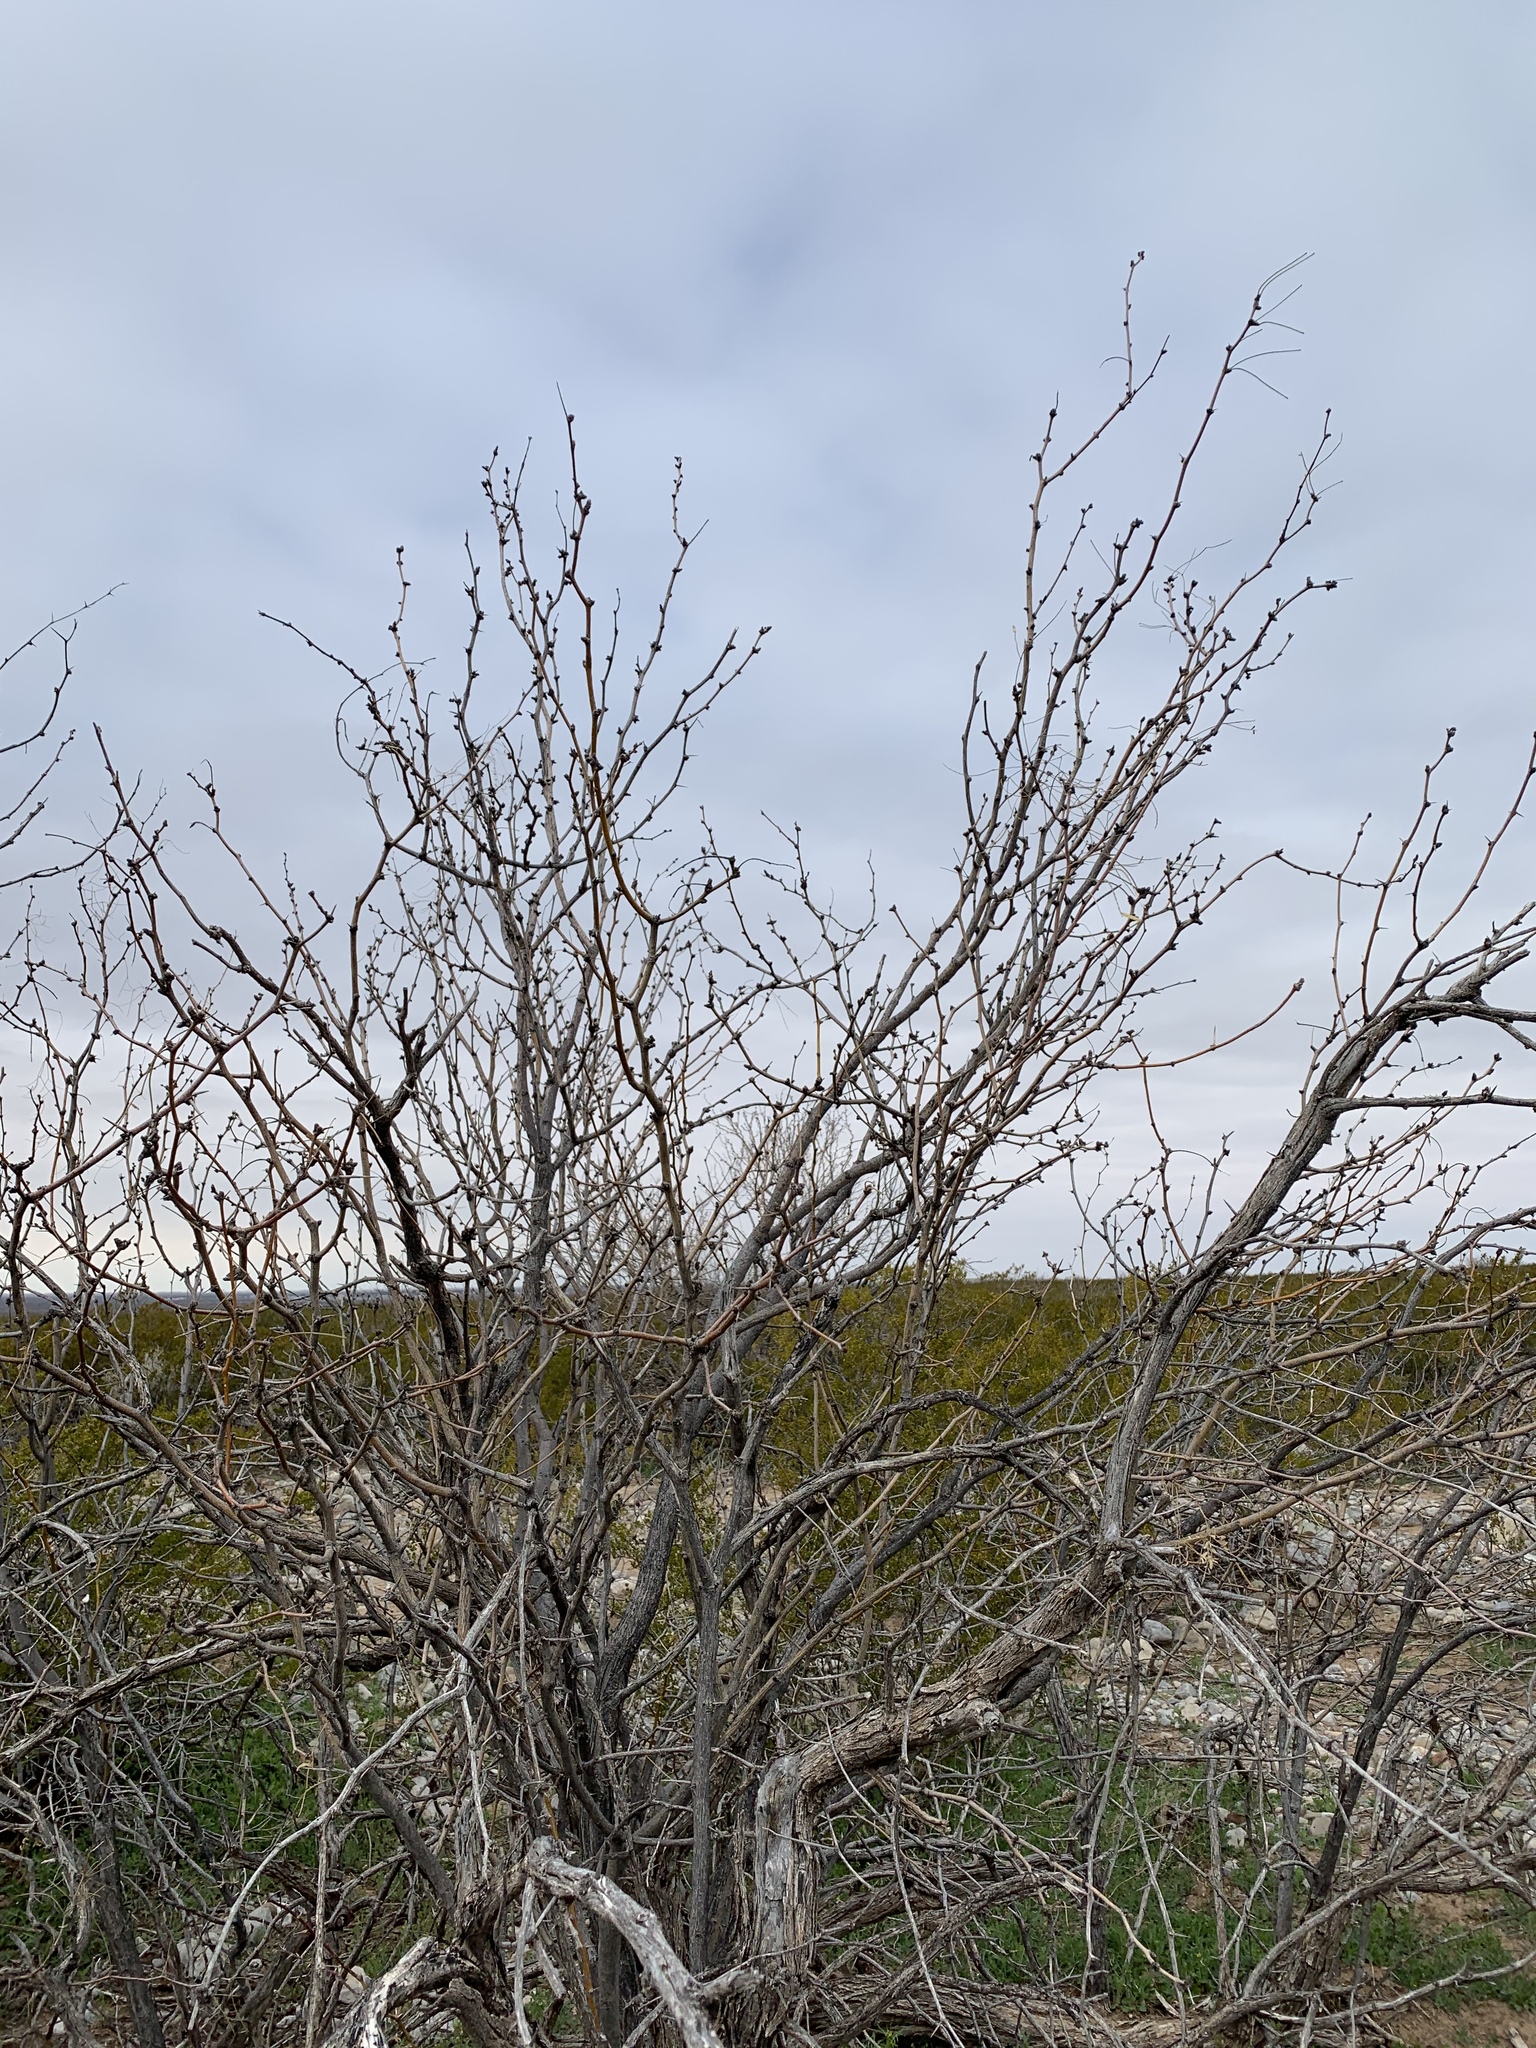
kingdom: Plantae
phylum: Tracheophyta
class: Magnoliopsida
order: Fabales
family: Fabaceae
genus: Prosopis
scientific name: Prosopis glandulosa
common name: Honey mesquite
